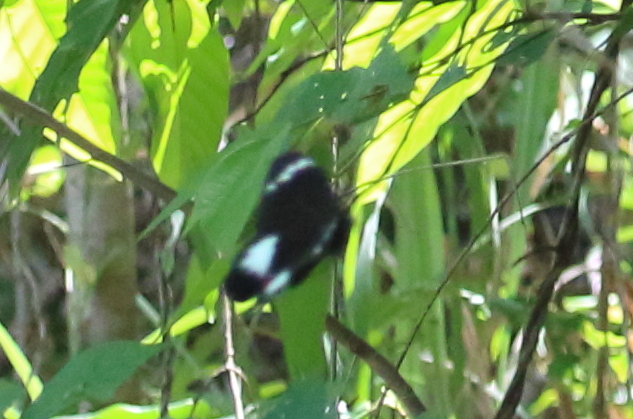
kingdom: Animalia
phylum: Arthropoda
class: Insecta
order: Lepidoptera
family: Papilionidae
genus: Papilio
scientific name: Papilio aegeus
